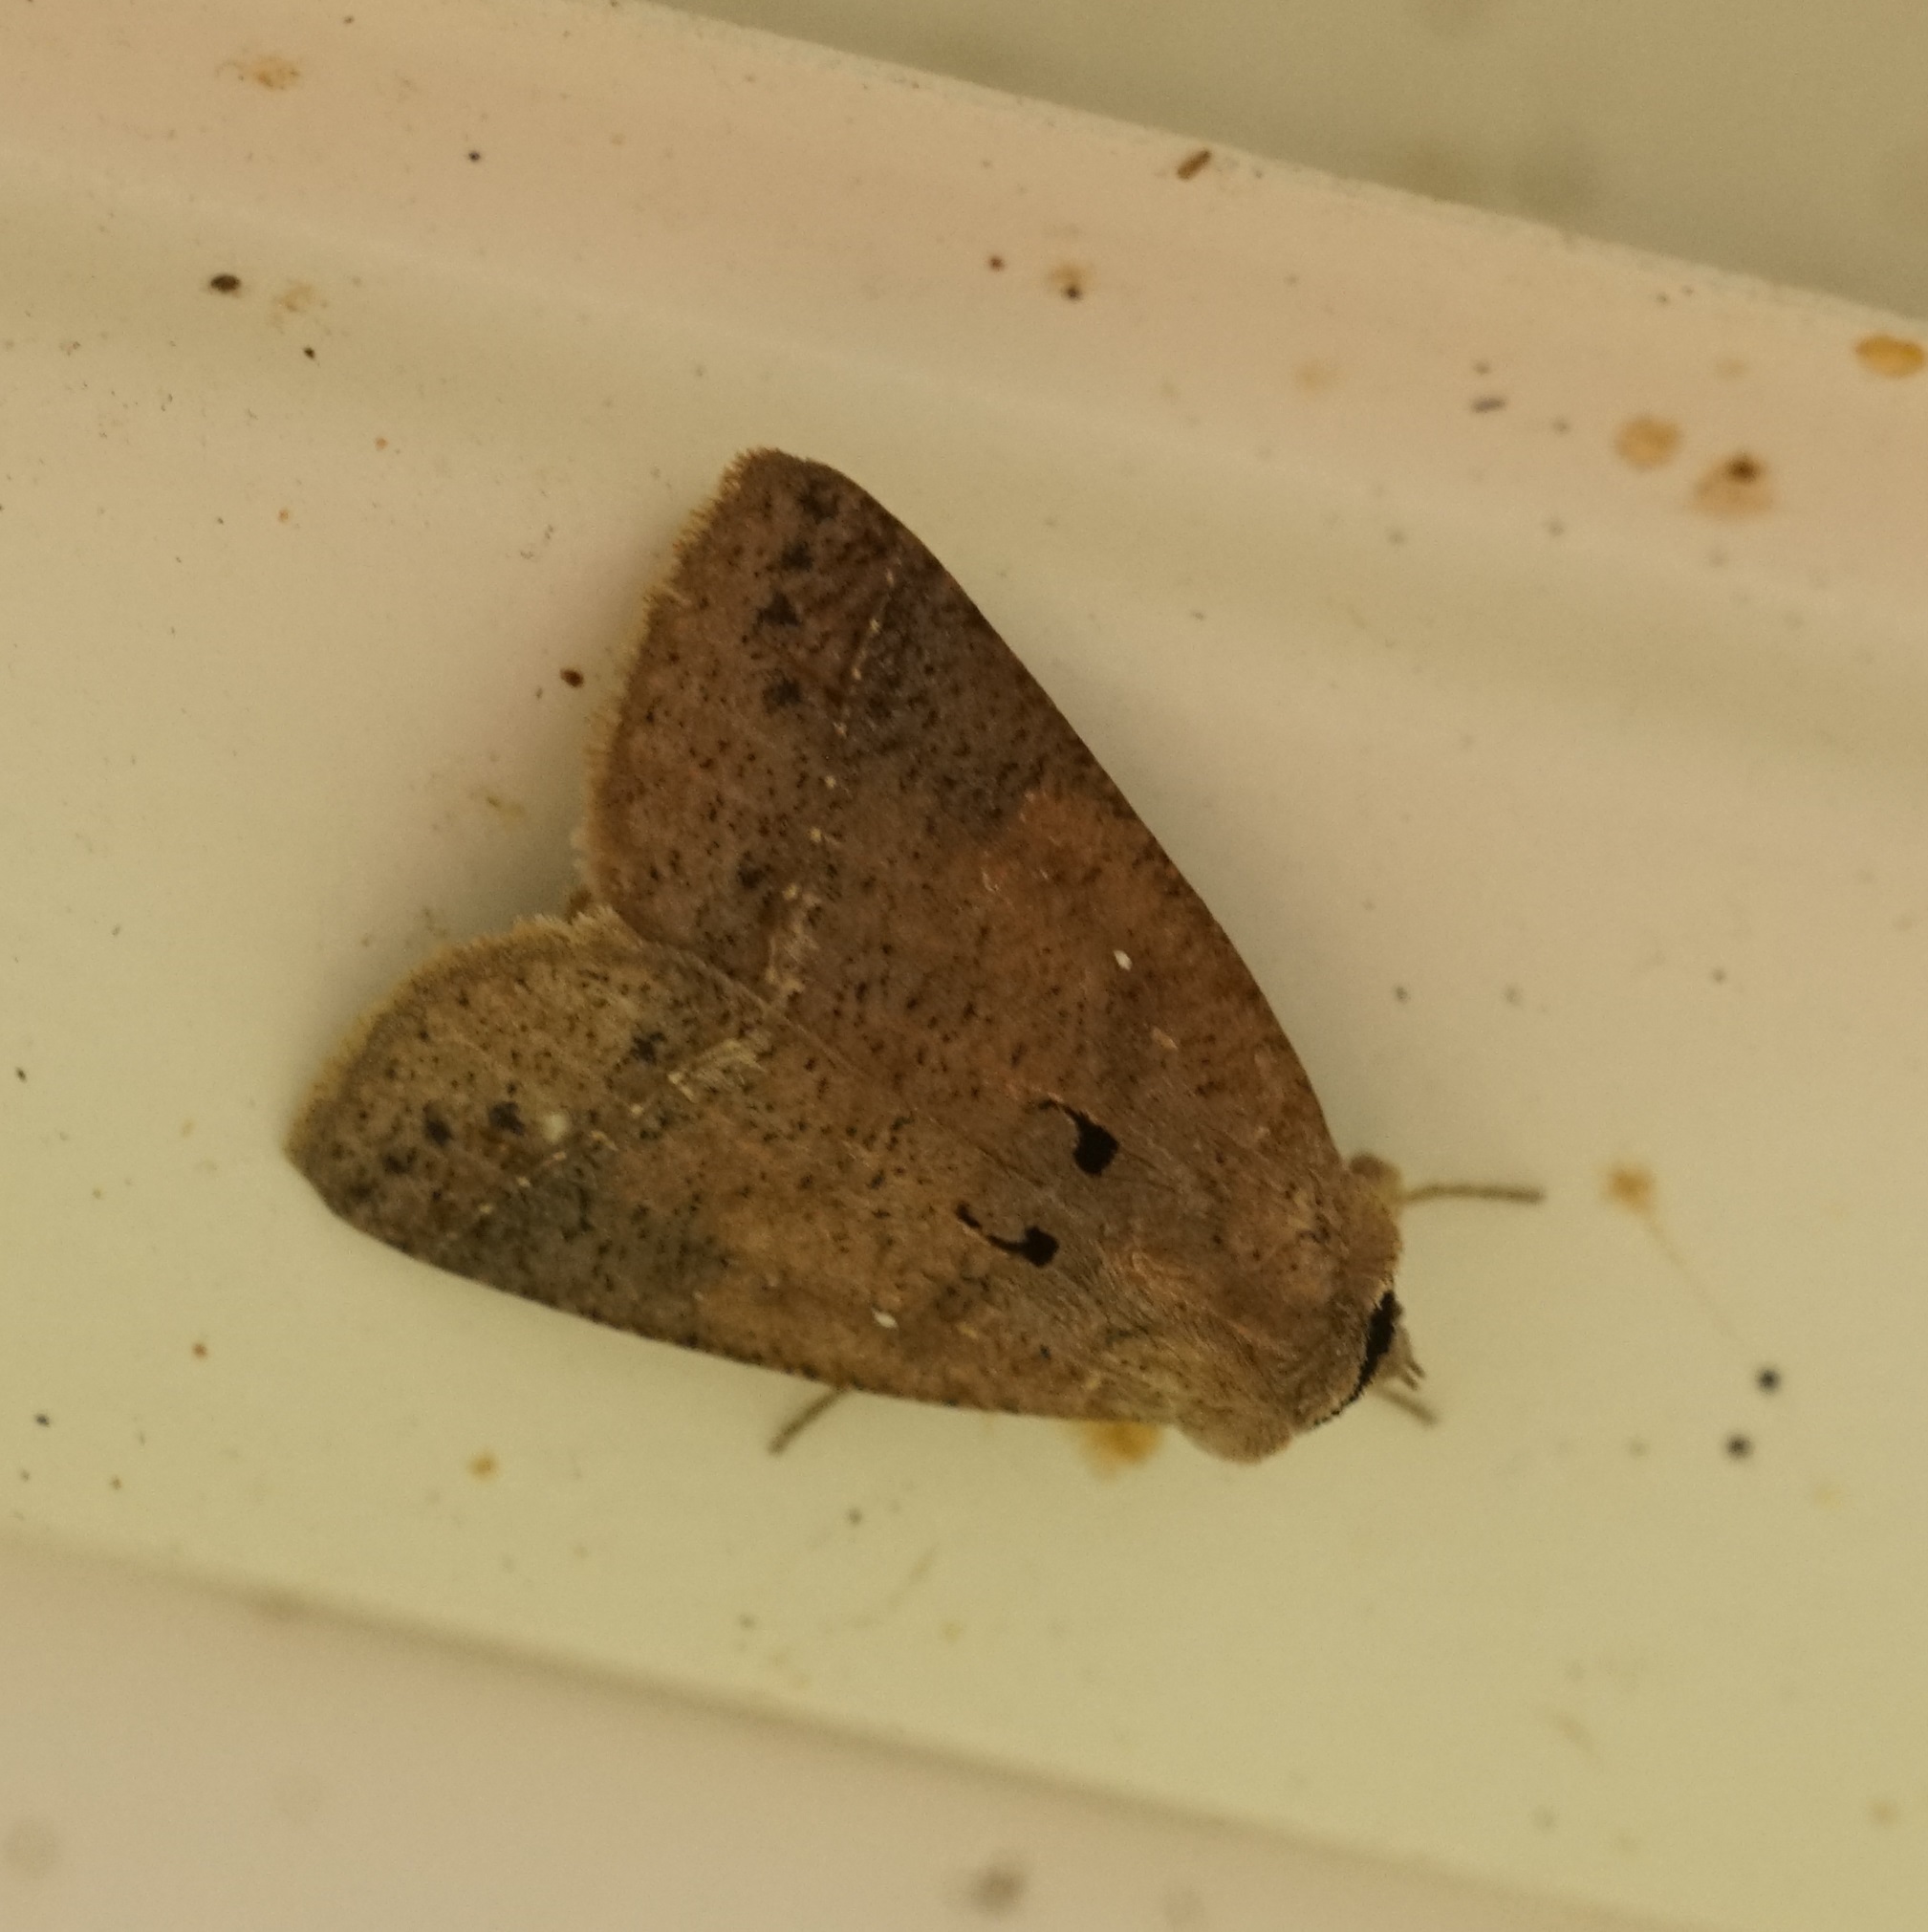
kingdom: Animalia
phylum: Arthropoda
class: Insecta
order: Lepidoptera
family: Erebidae
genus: Pantydia
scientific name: Pantydia metaspila
